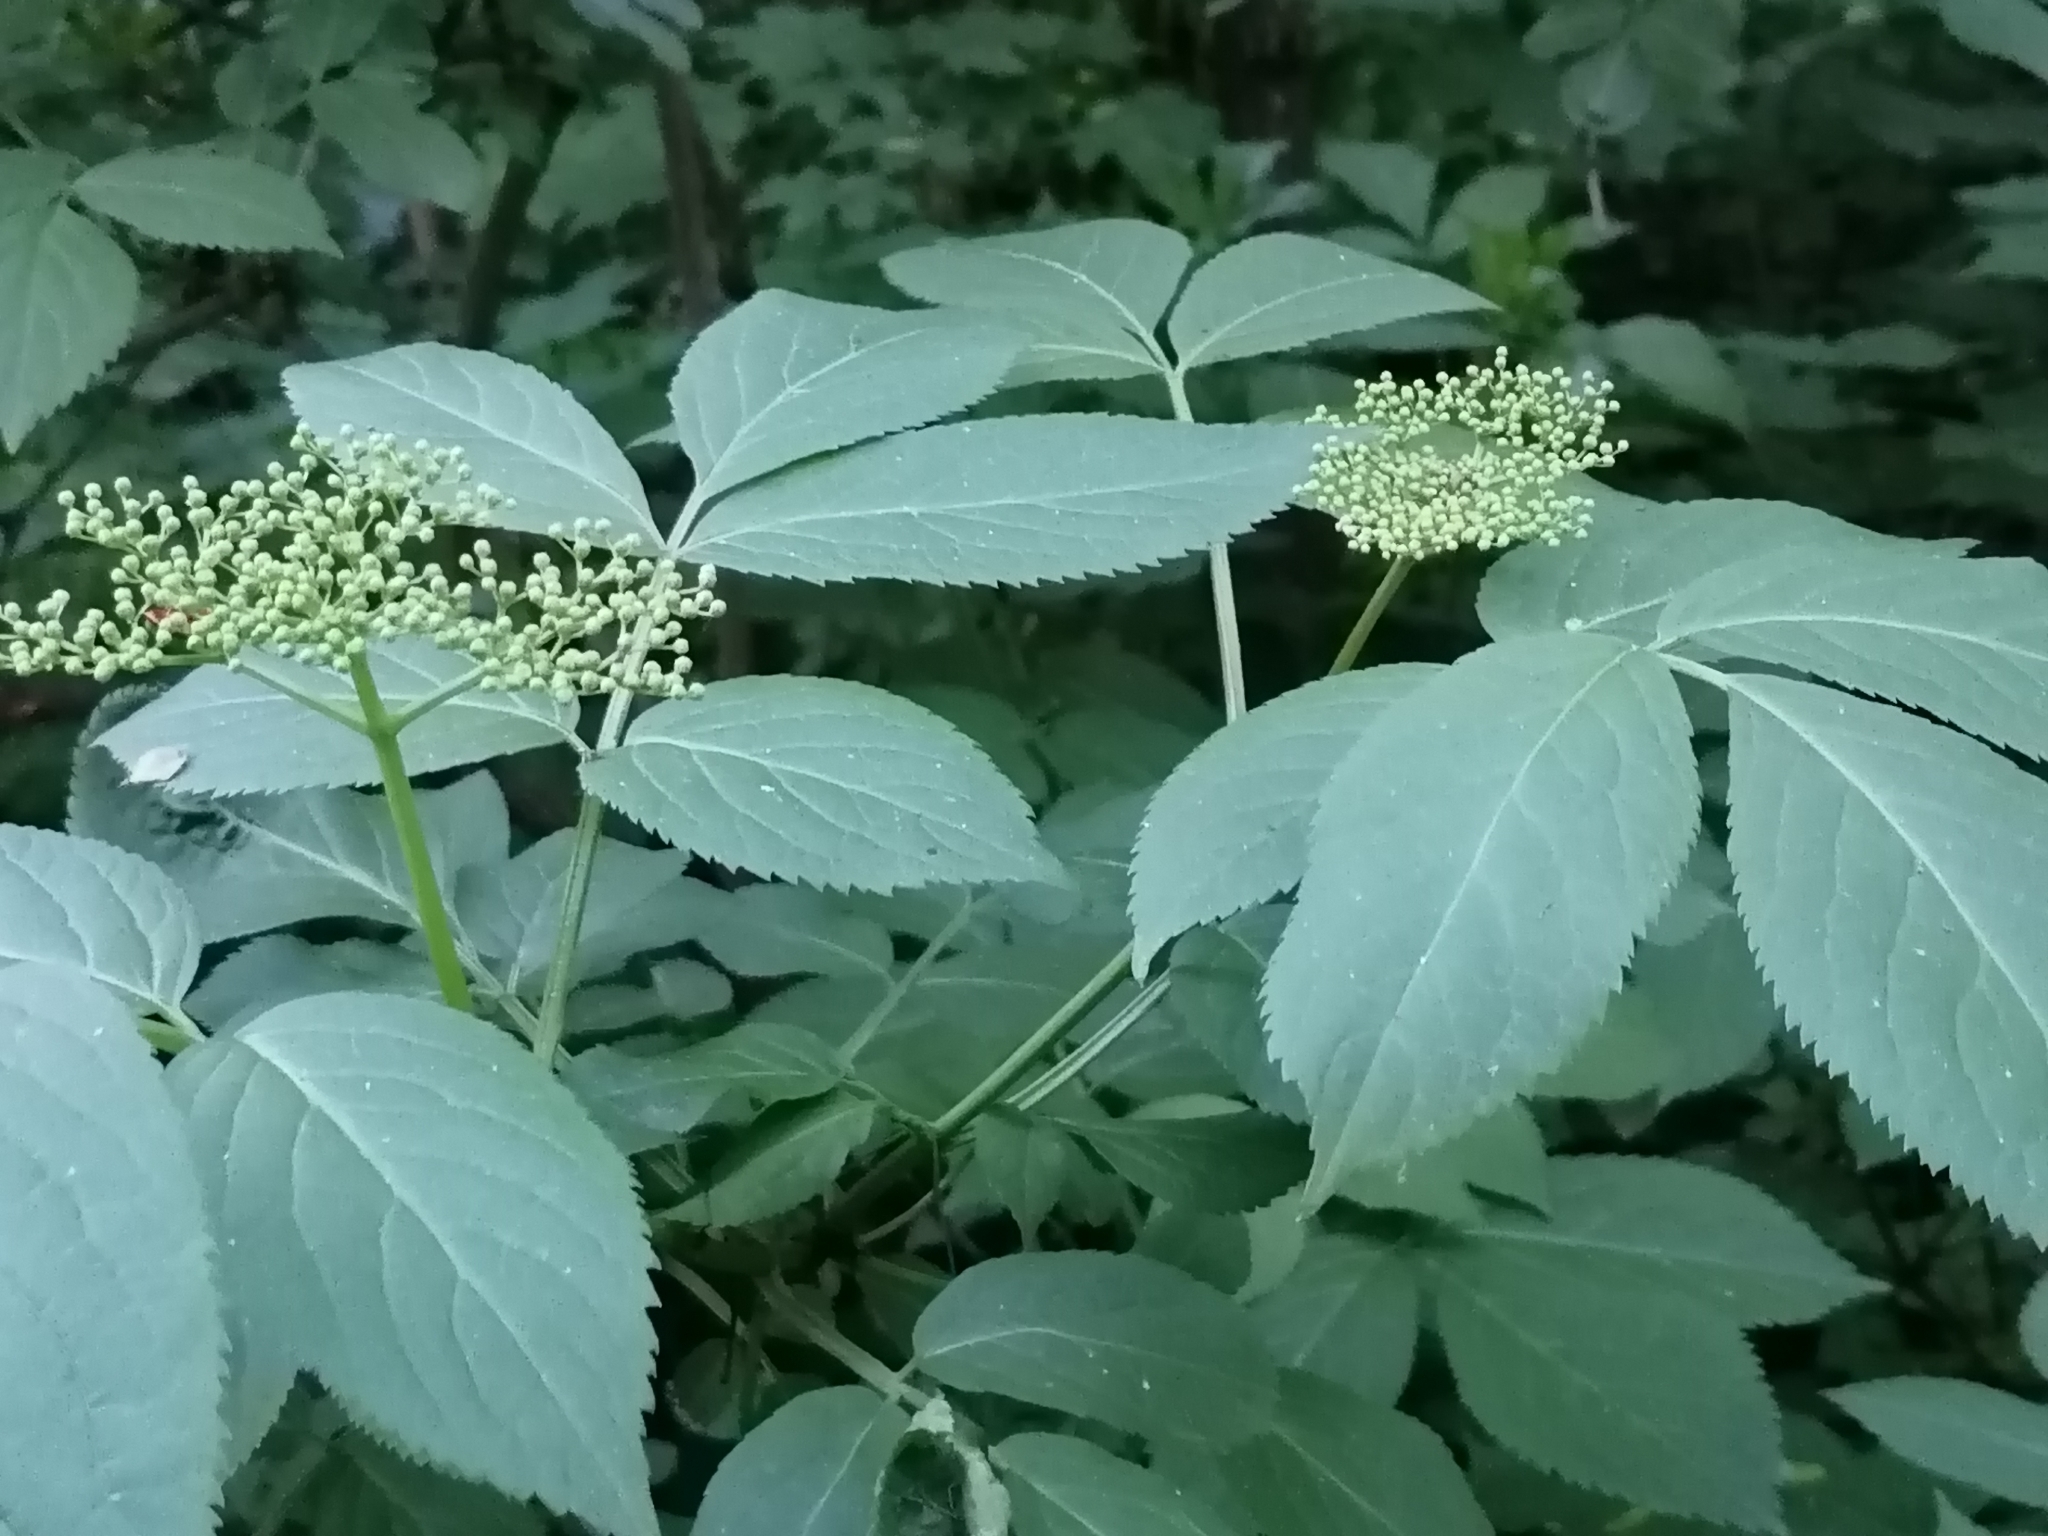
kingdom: Plantae
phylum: Tracheophyta
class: Magnoliopsida
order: Dipsacales
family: Viburnaceae
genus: Sambucus
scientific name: Sambucus nigra
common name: Elder
